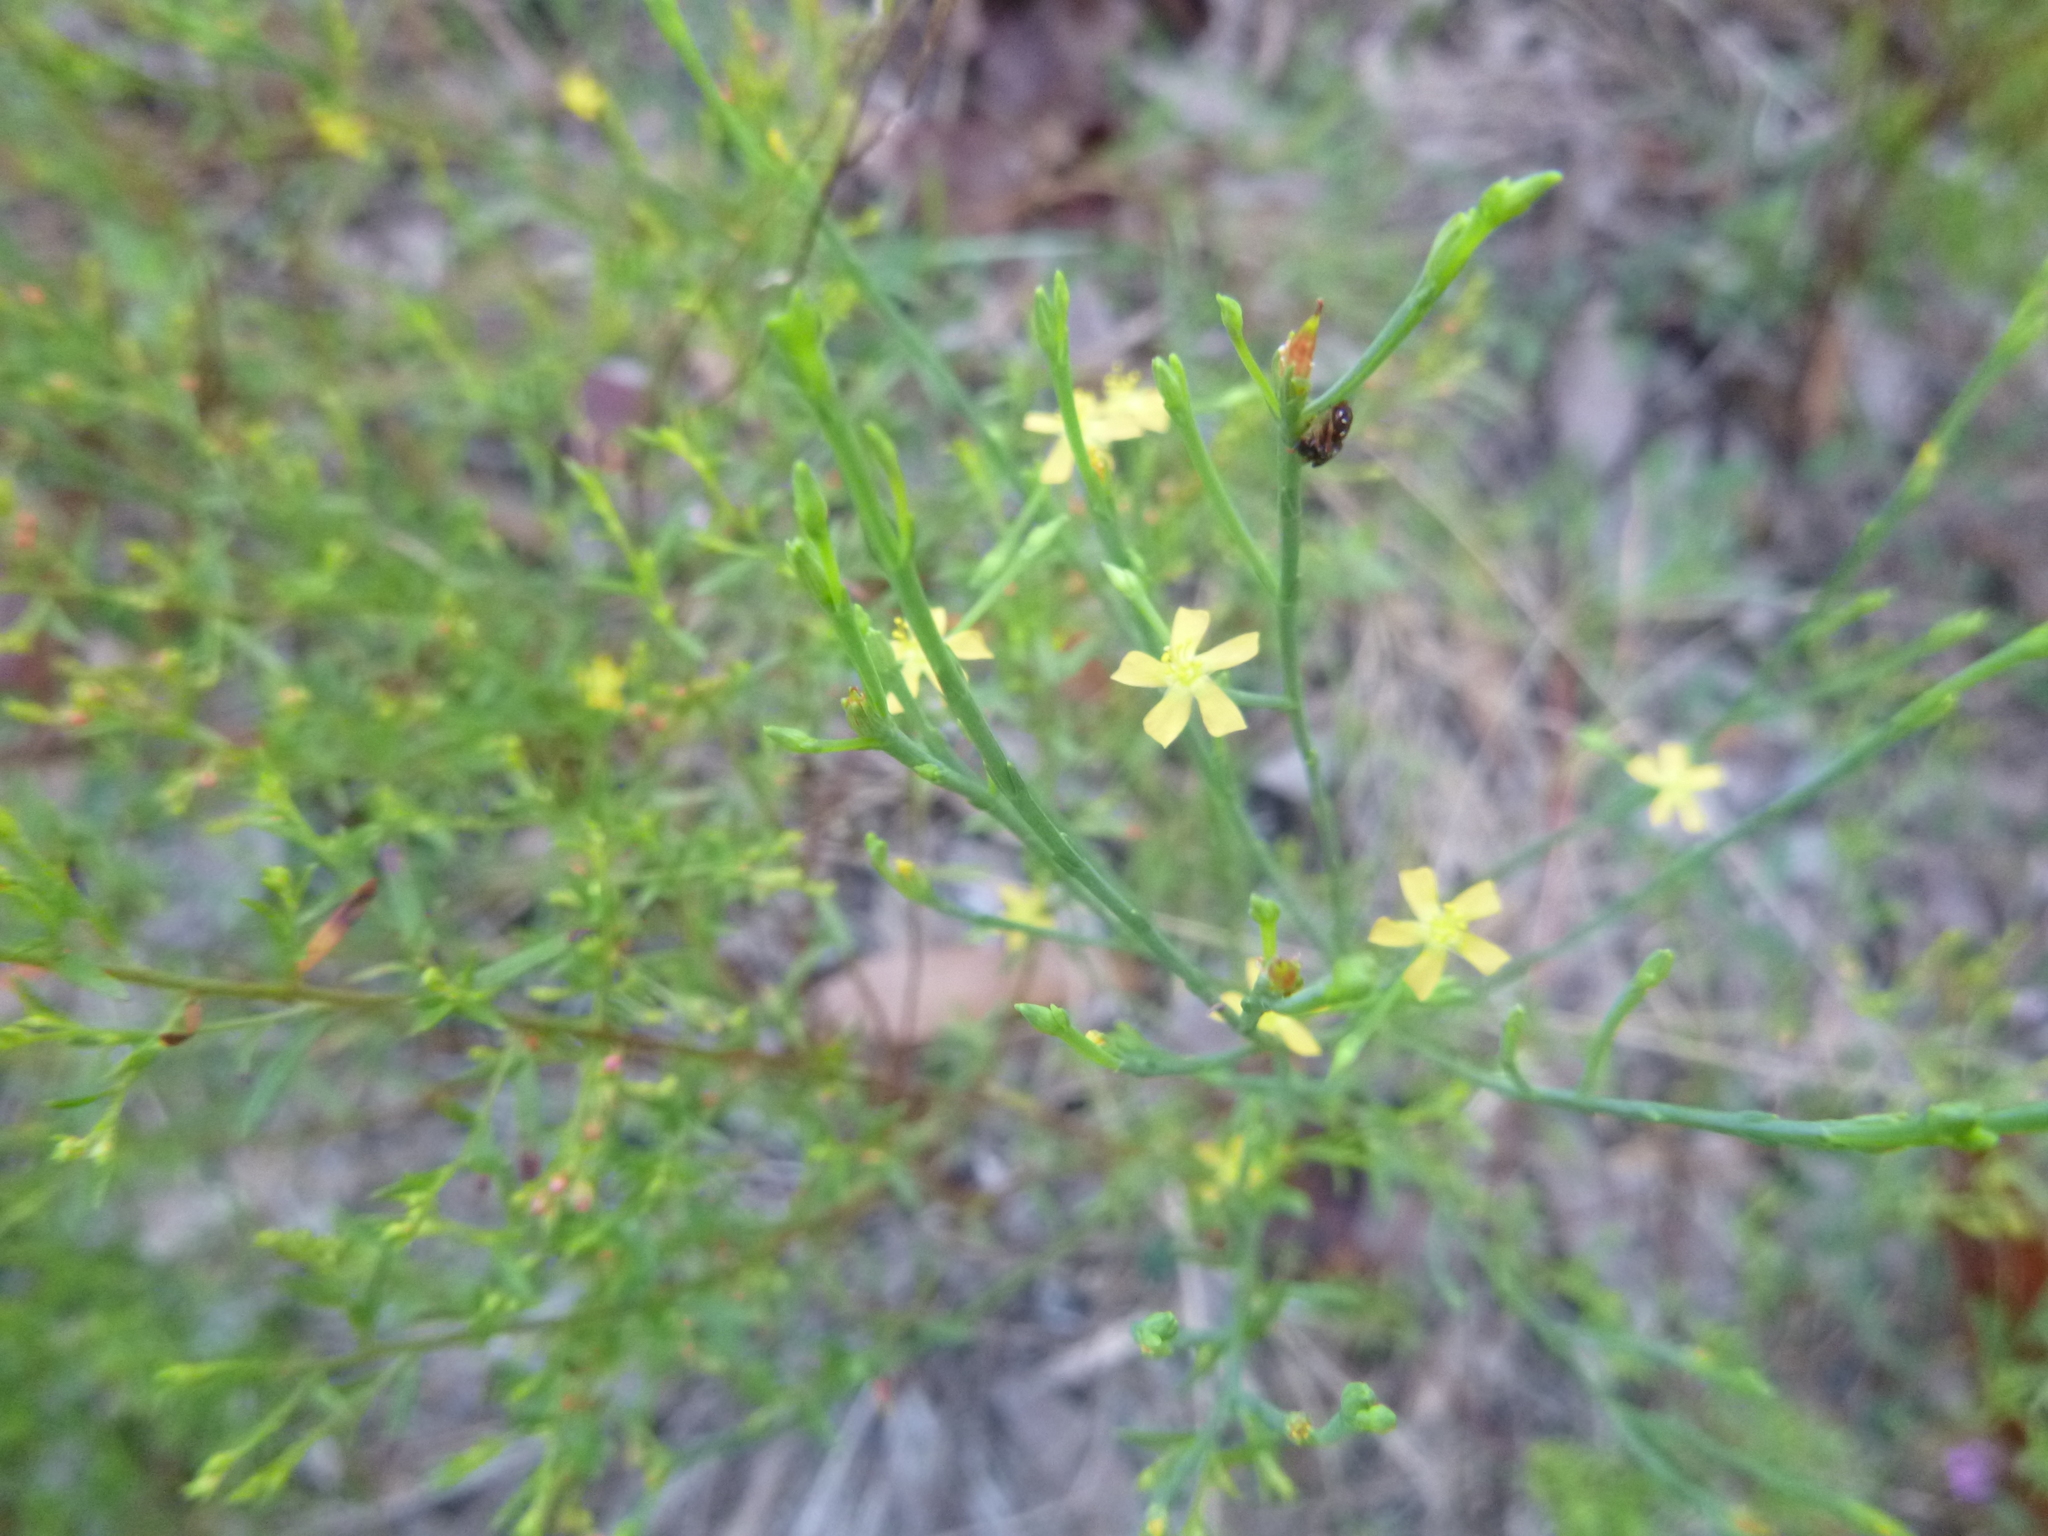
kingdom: Plantae
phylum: Tracheophyta
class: Magnoliopsida
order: Malpighiales
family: Hypericaceae
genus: Hypericum
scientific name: Hypericum gentianoides
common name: Gentian-leaved st. john's-wort
